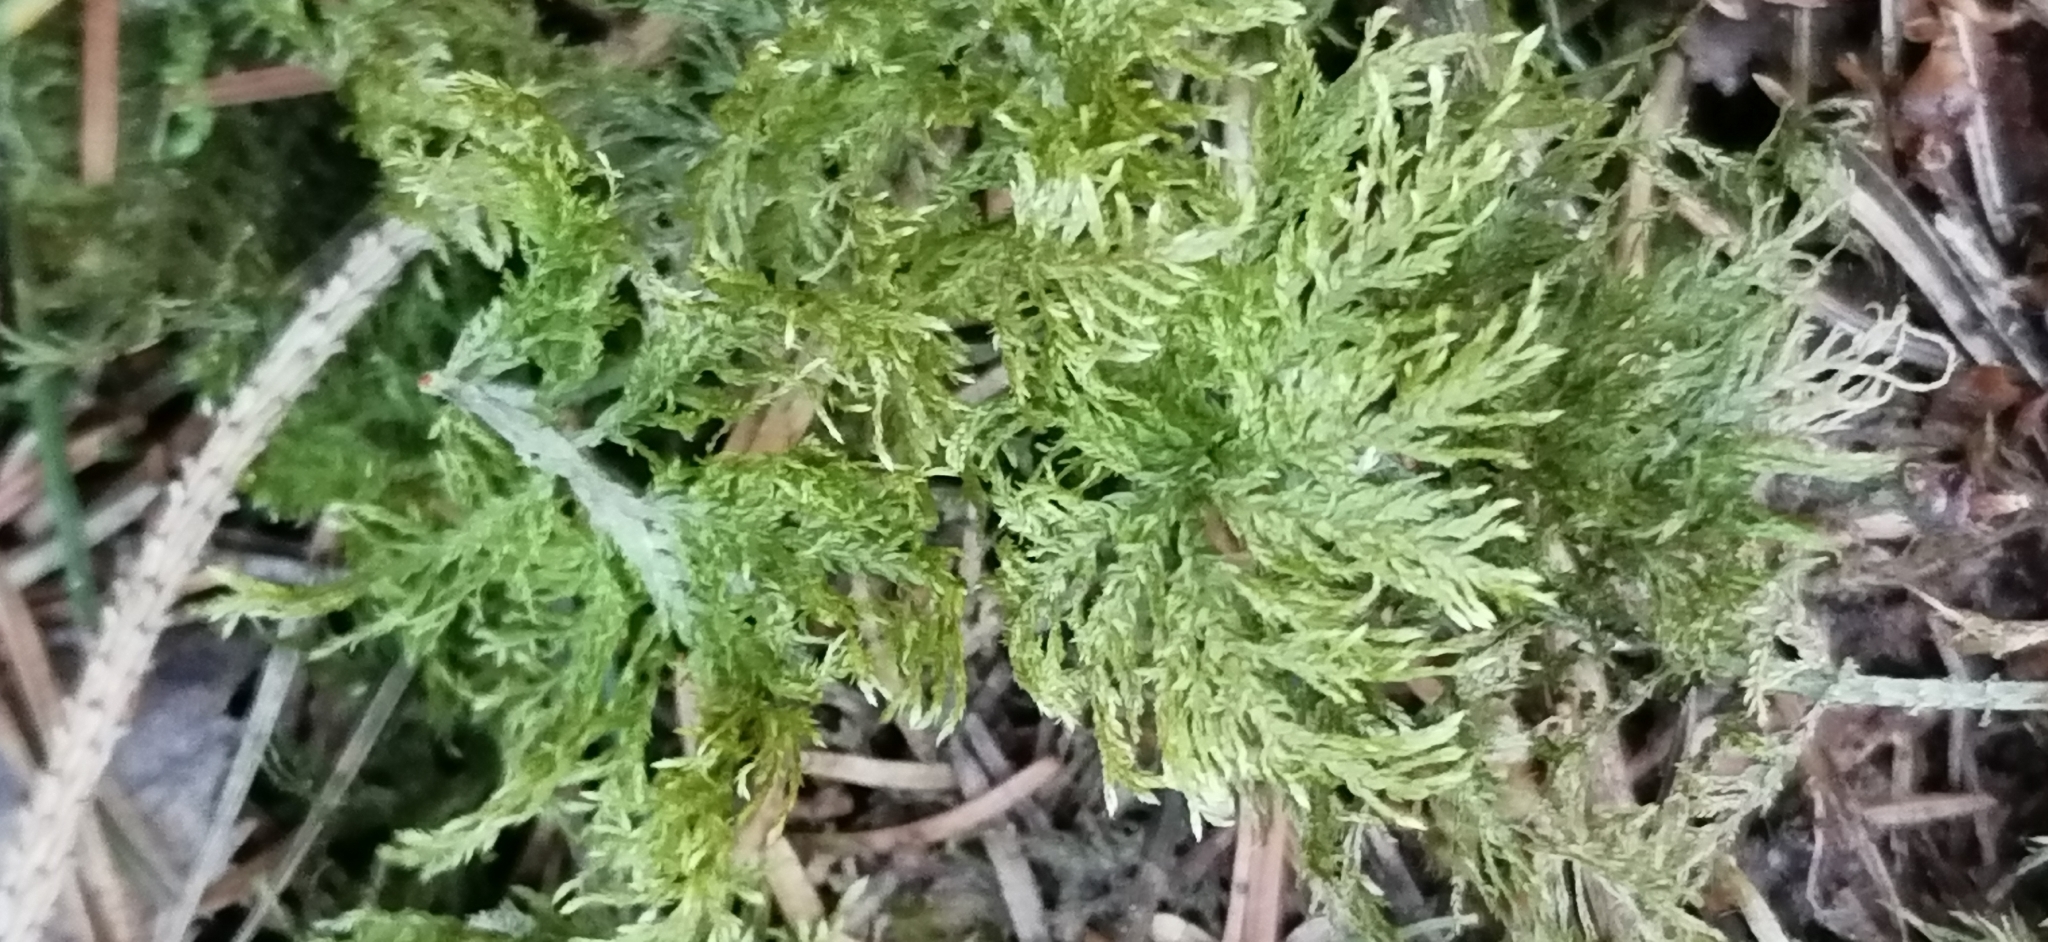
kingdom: Plantae
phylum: Bryophyta
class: Bryopsida
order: Hypnales
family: Hylocomiaceae
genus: Hylocomium
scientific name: Hylocomium splendens
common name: Stairstep moss
